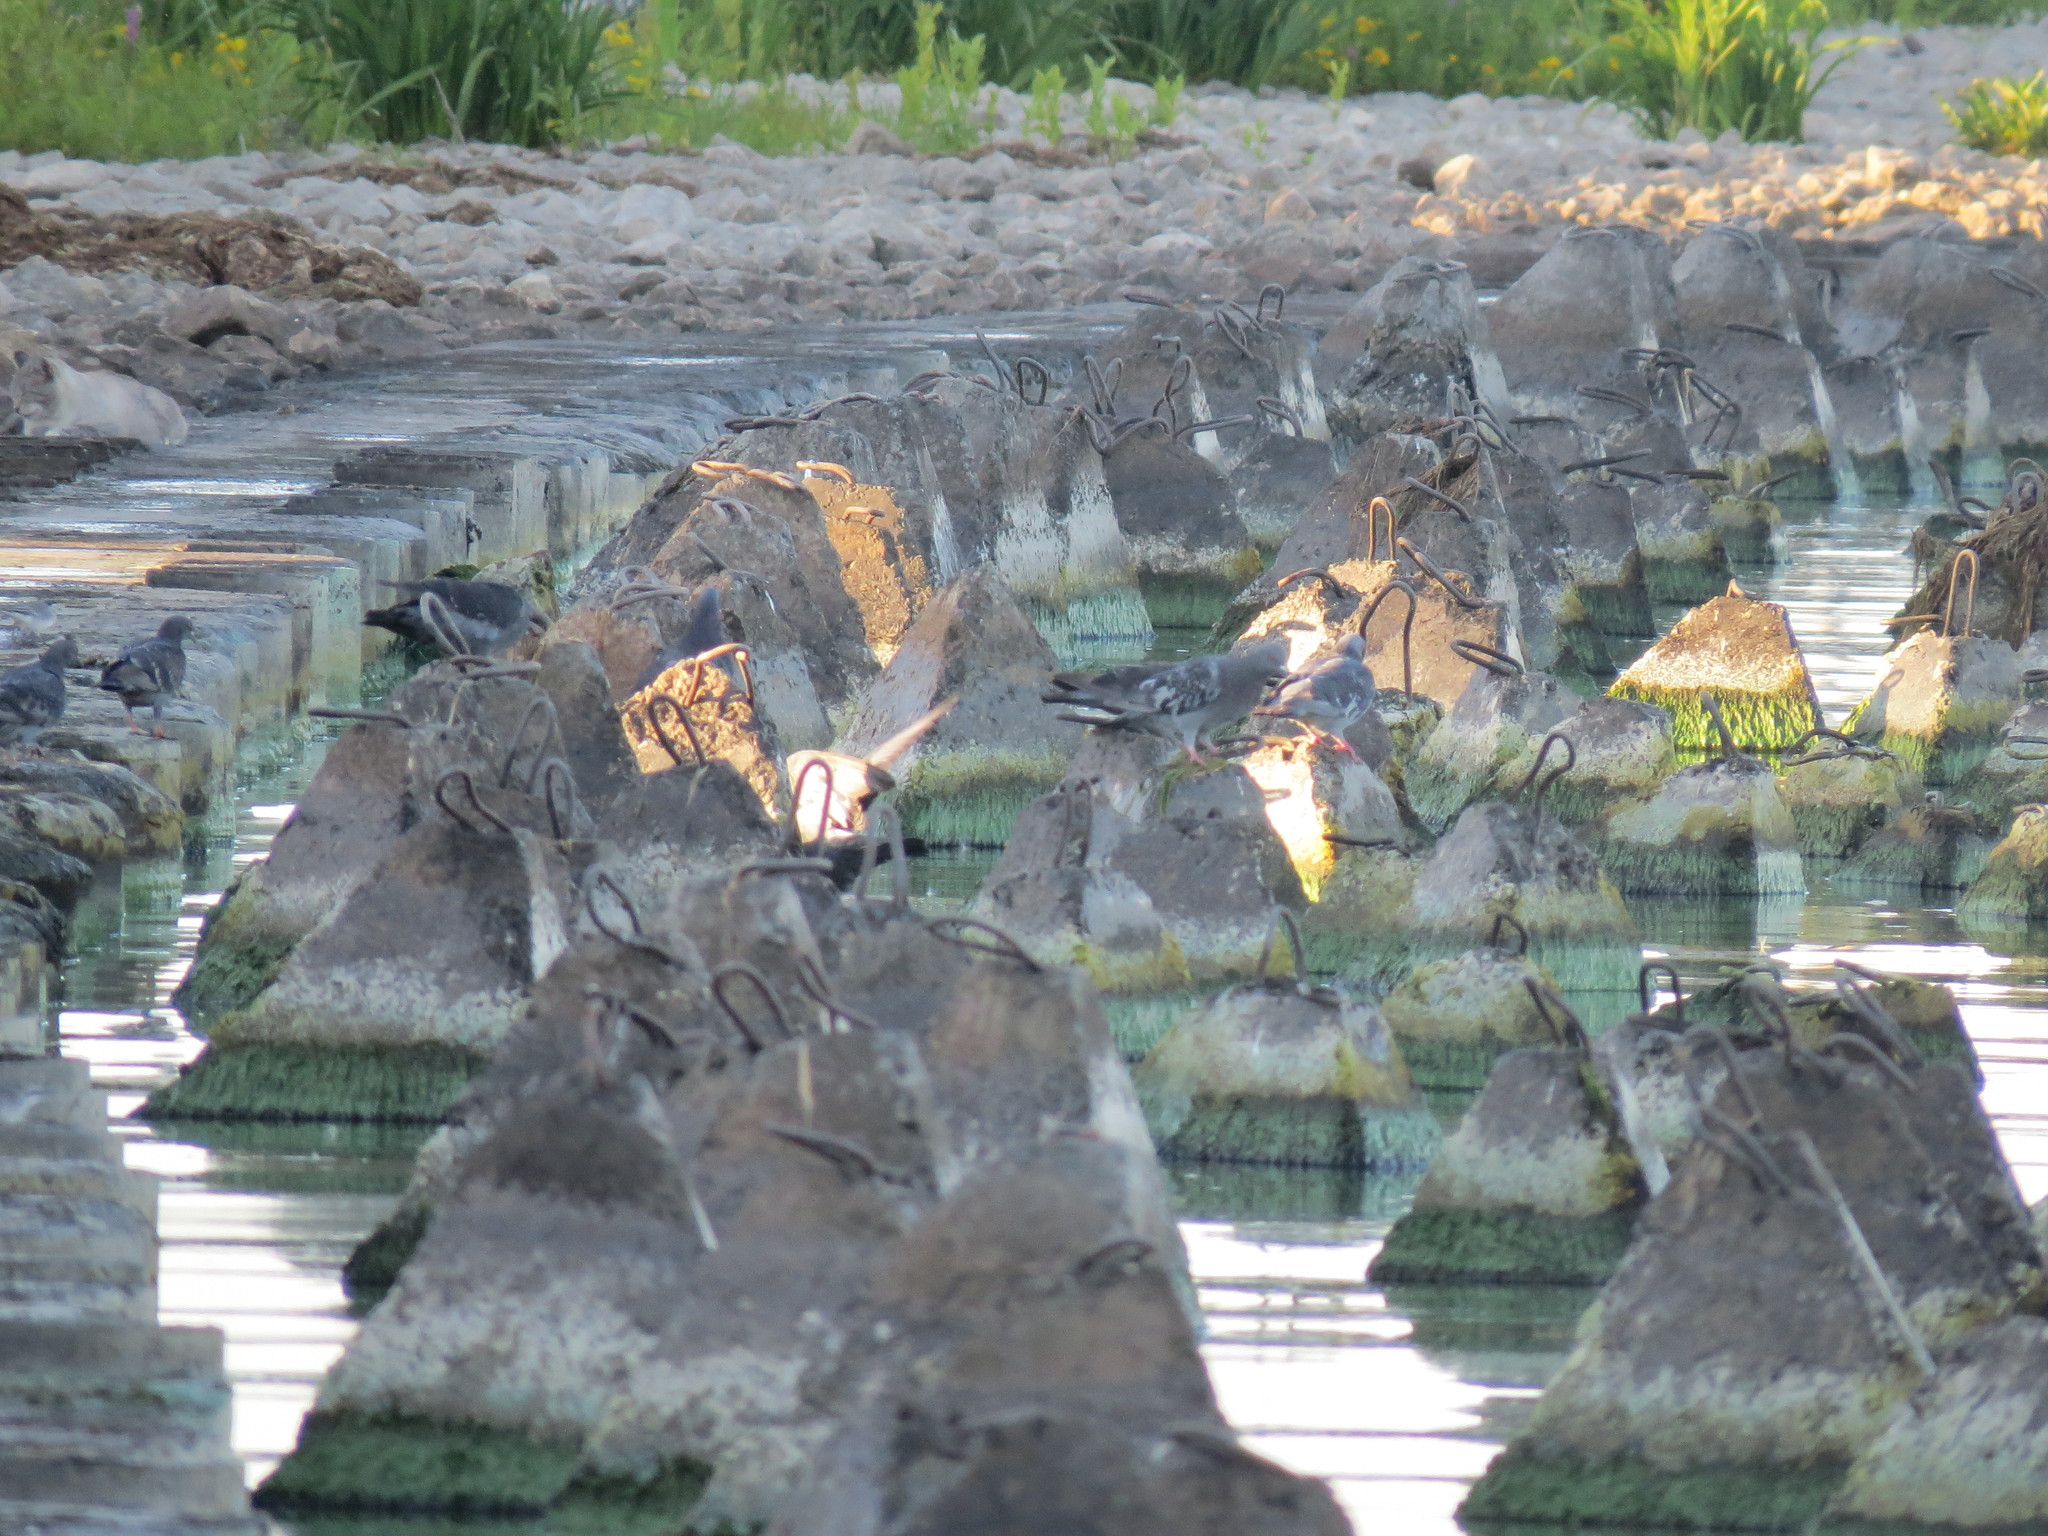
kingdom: Animalia
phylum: Chordata
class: Aves
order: Columbiformes
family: Columbidae
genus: Columba
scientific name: Columba livia
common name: Rock pigeon
